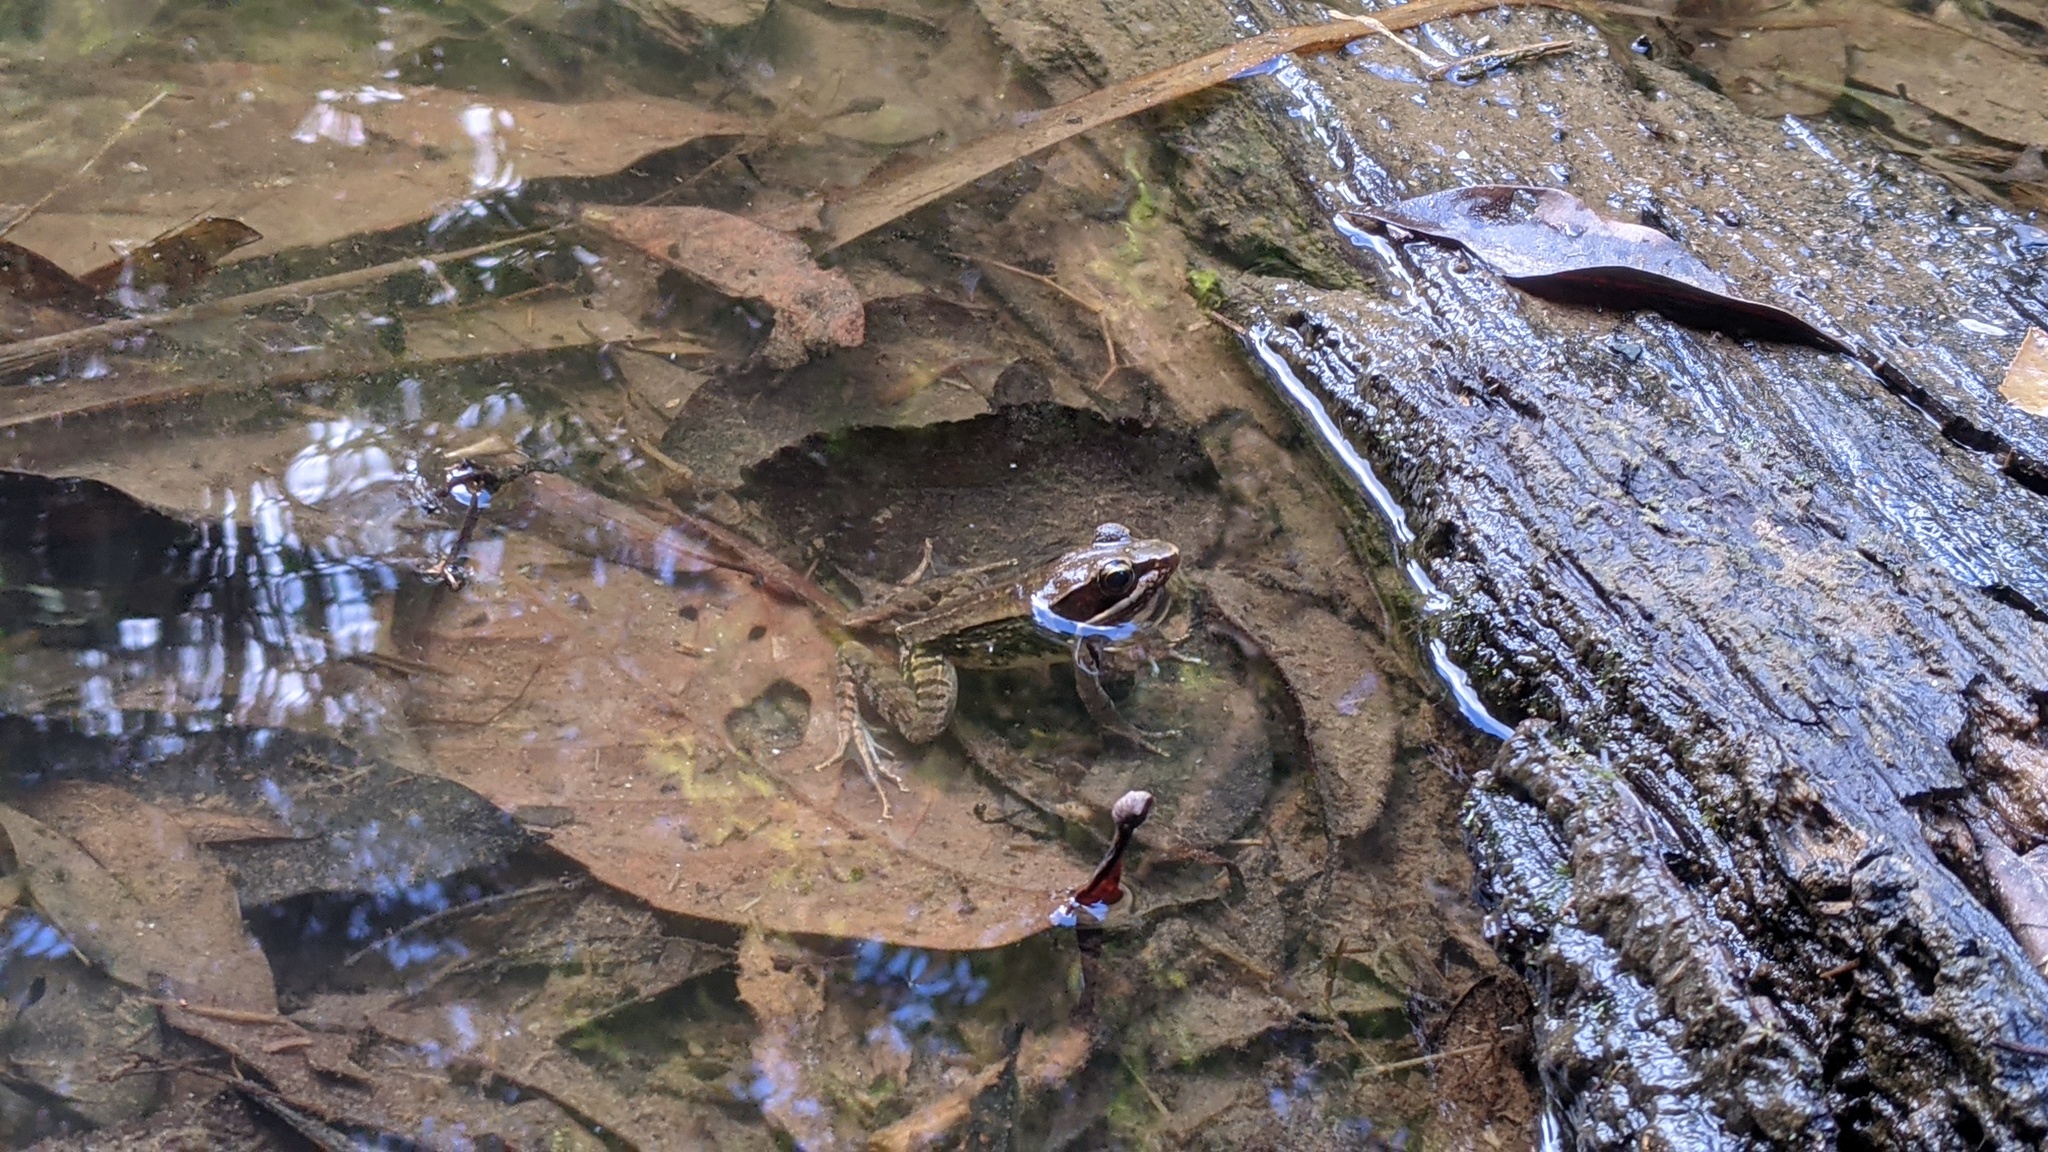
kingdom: Animalia
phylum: Chordata
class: Amphibia
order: Anura
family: Ranidae
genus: Nidirana
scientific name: Nidirana adenopleura
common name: Olive frog
